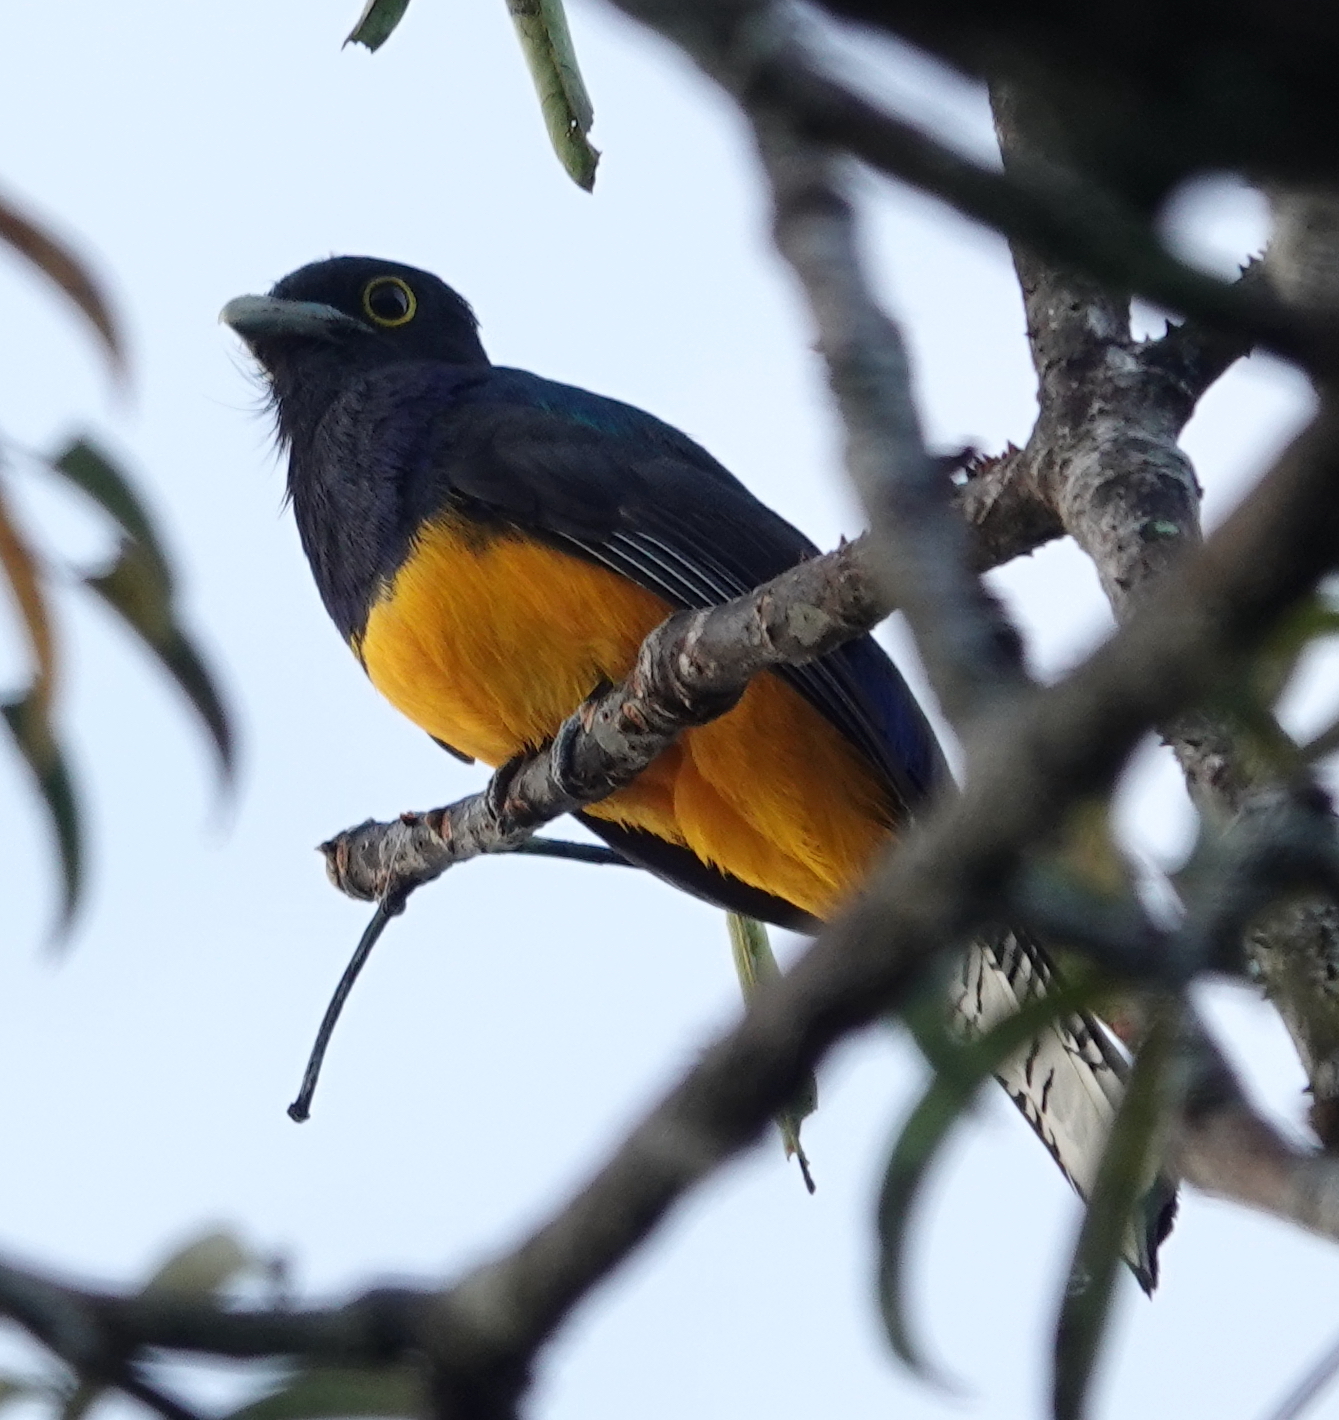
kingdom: Animalia
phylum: Chordata
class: Aves
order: Trogoniformes
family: Trogonidae
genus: Trogon
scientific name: Trogon ramonianus
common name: Amazonian trogon
